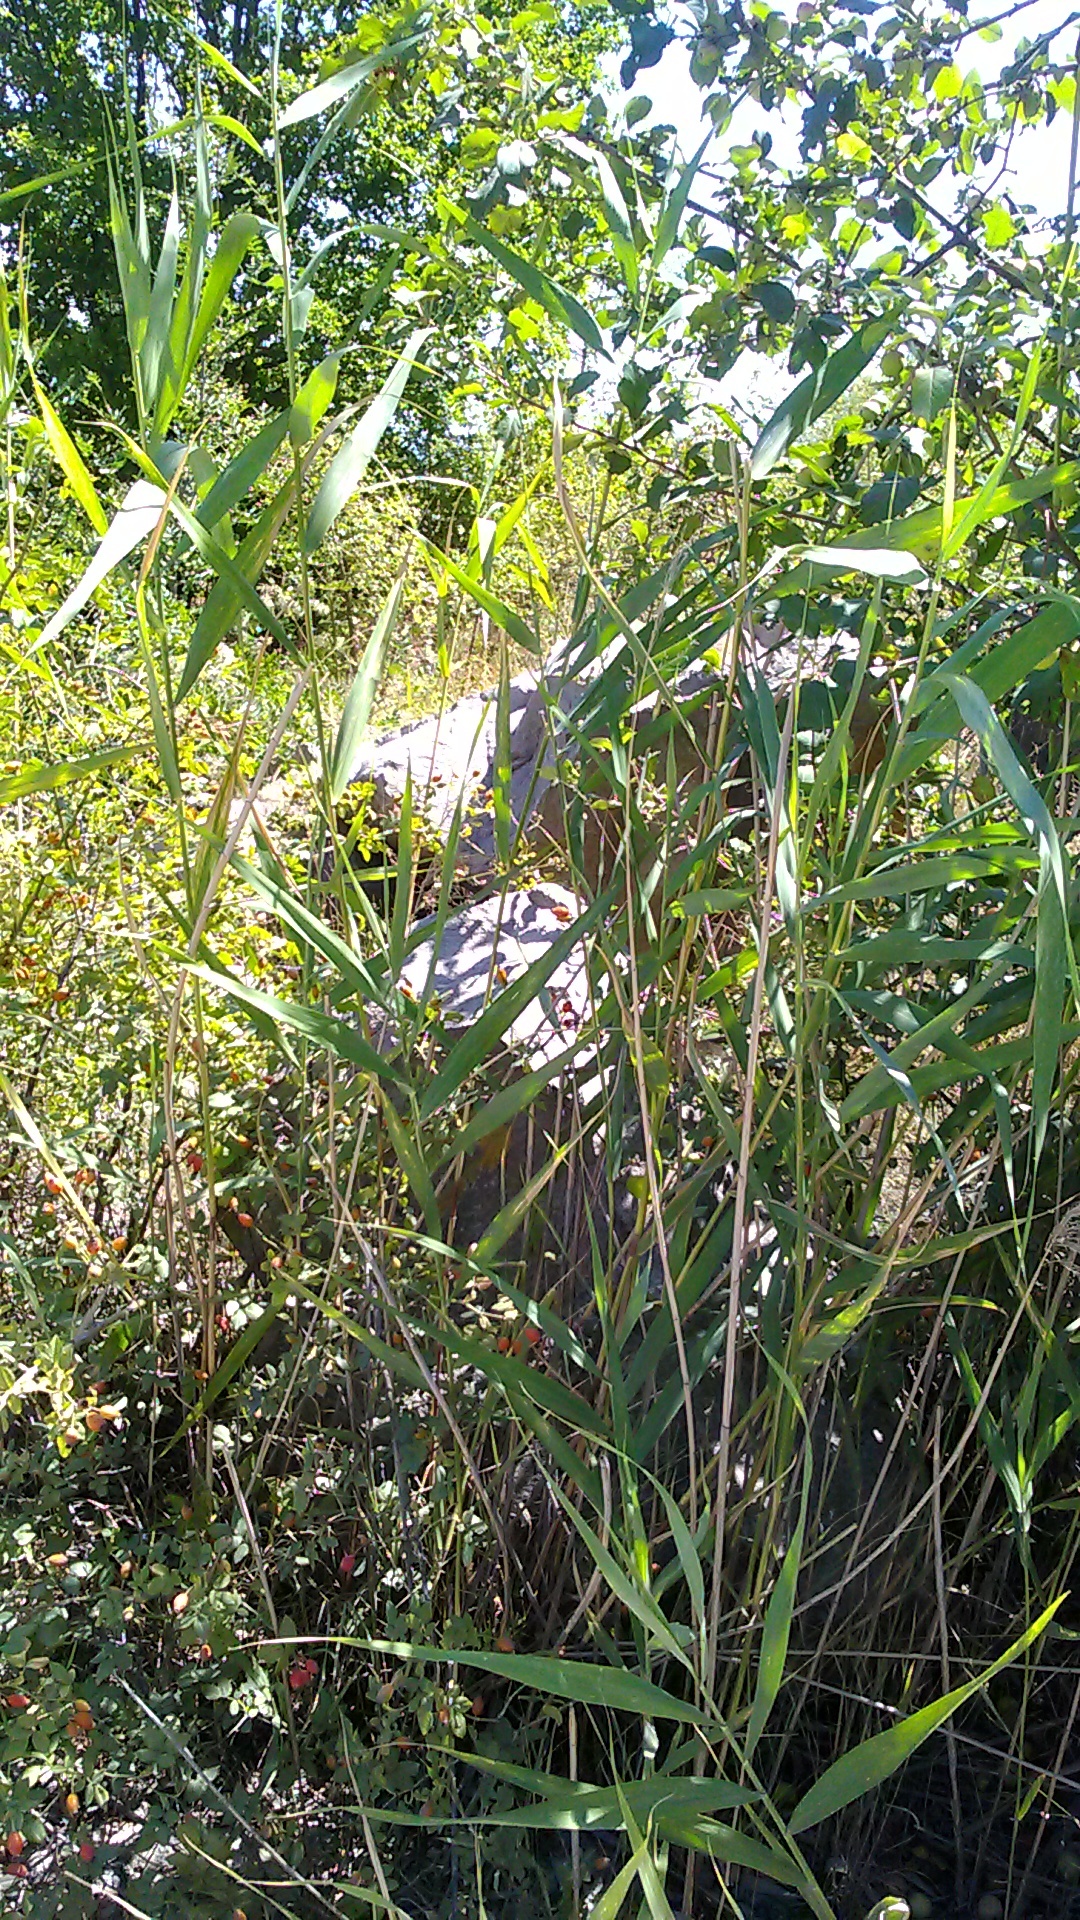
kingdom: Plantae
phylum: Tracheophyta
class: Liliopsida
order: Poales
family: Poaceae
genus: Phragmites
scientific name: Phragmites australis
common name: Common reed
